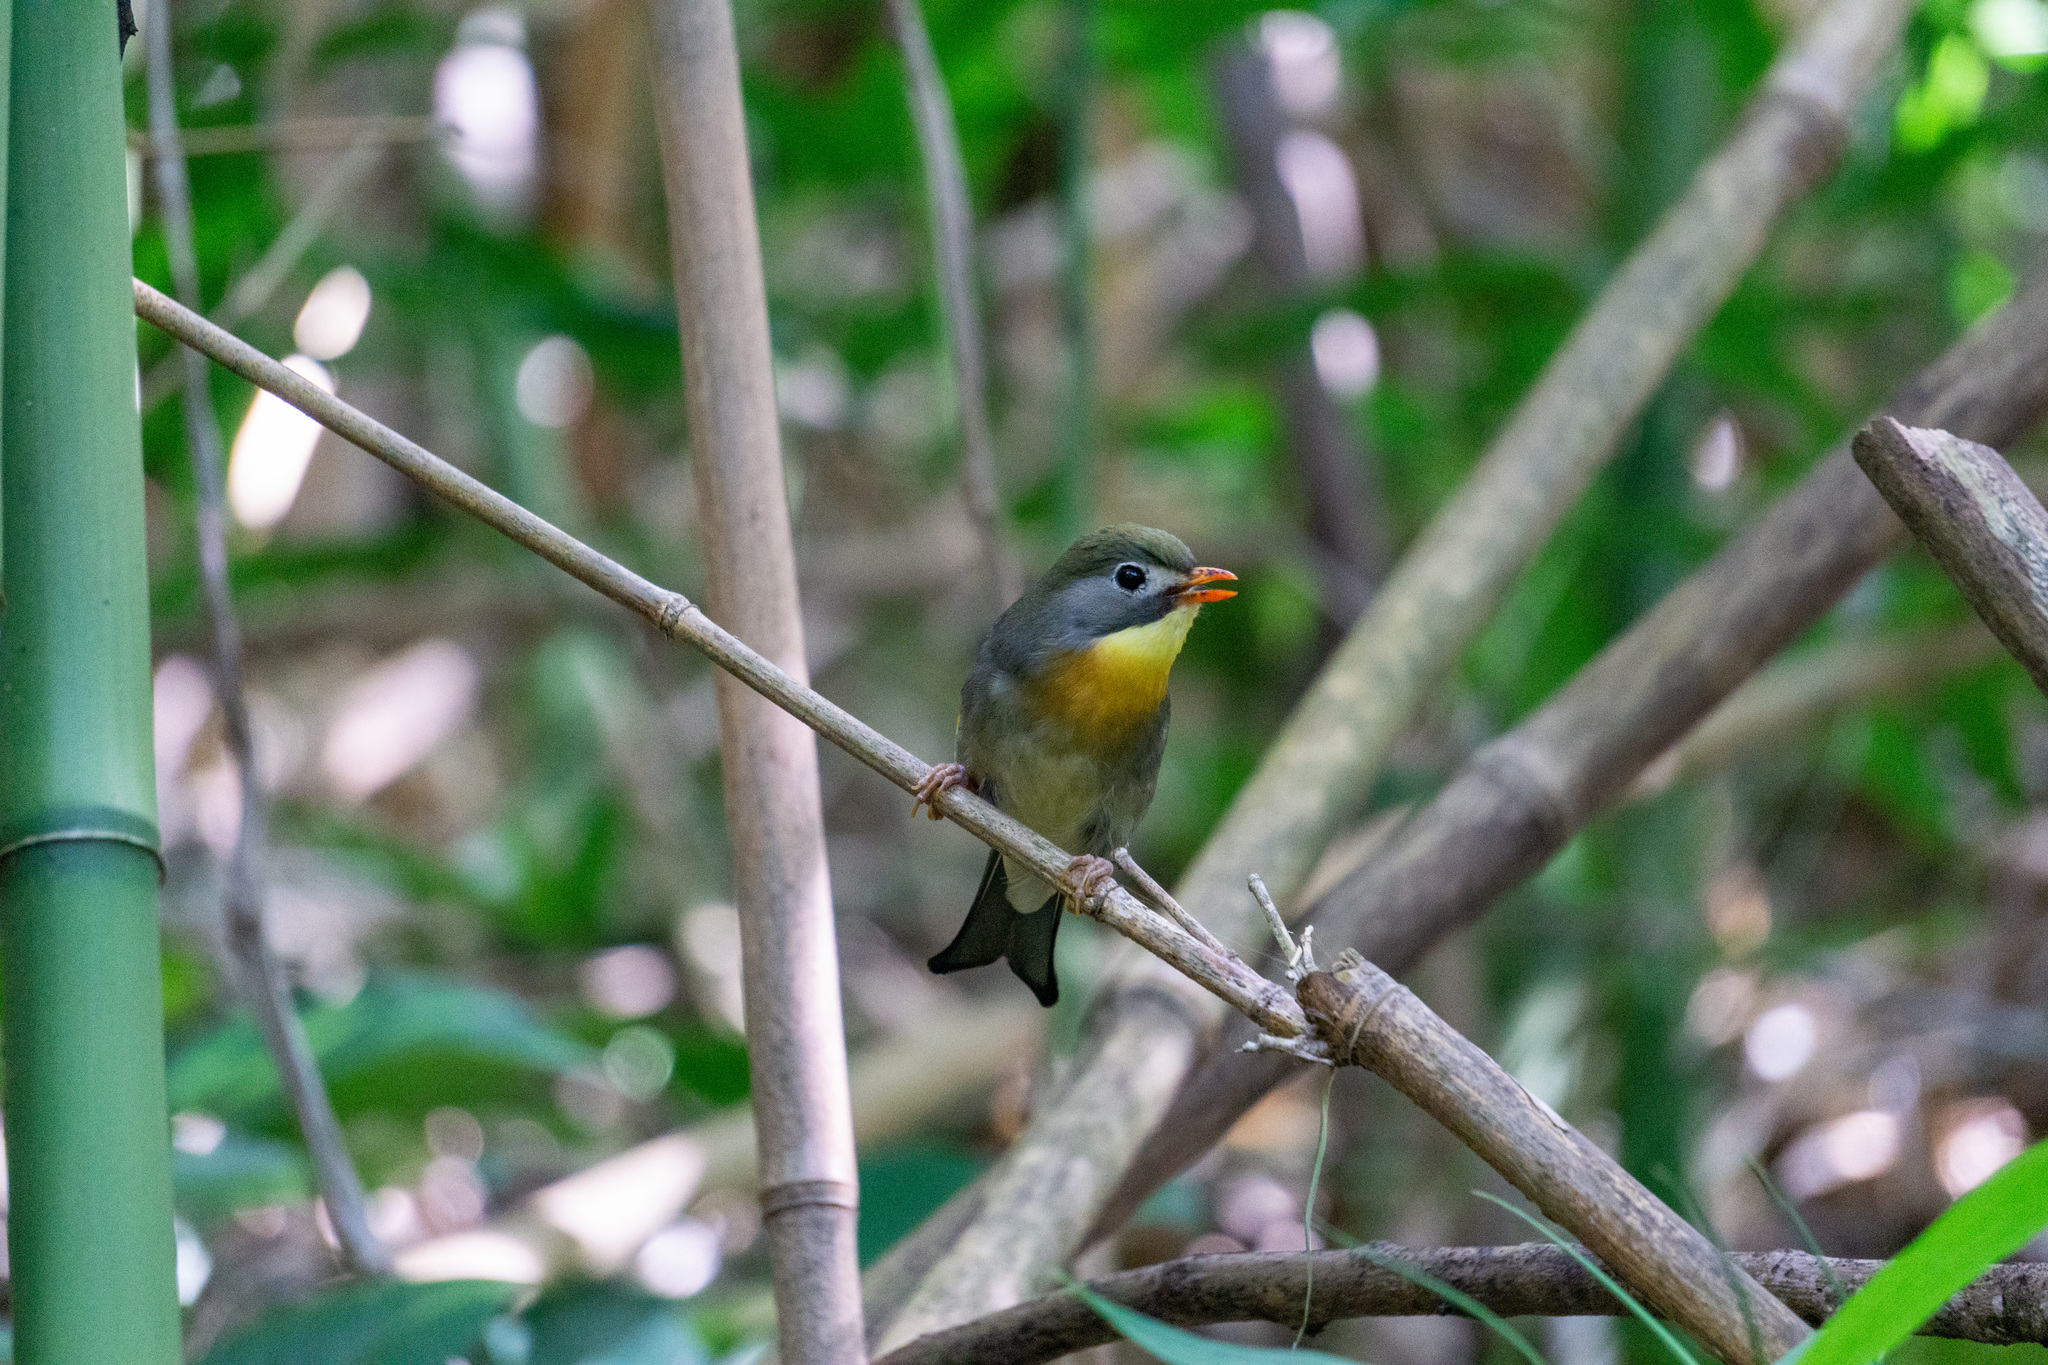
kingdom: Animalia
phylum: Chordata
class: Aves
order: Passeriformes
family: Leiothrichidae
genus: Leiothrix
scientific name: Leiothrix lutea
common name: Red-billed leiothrix
